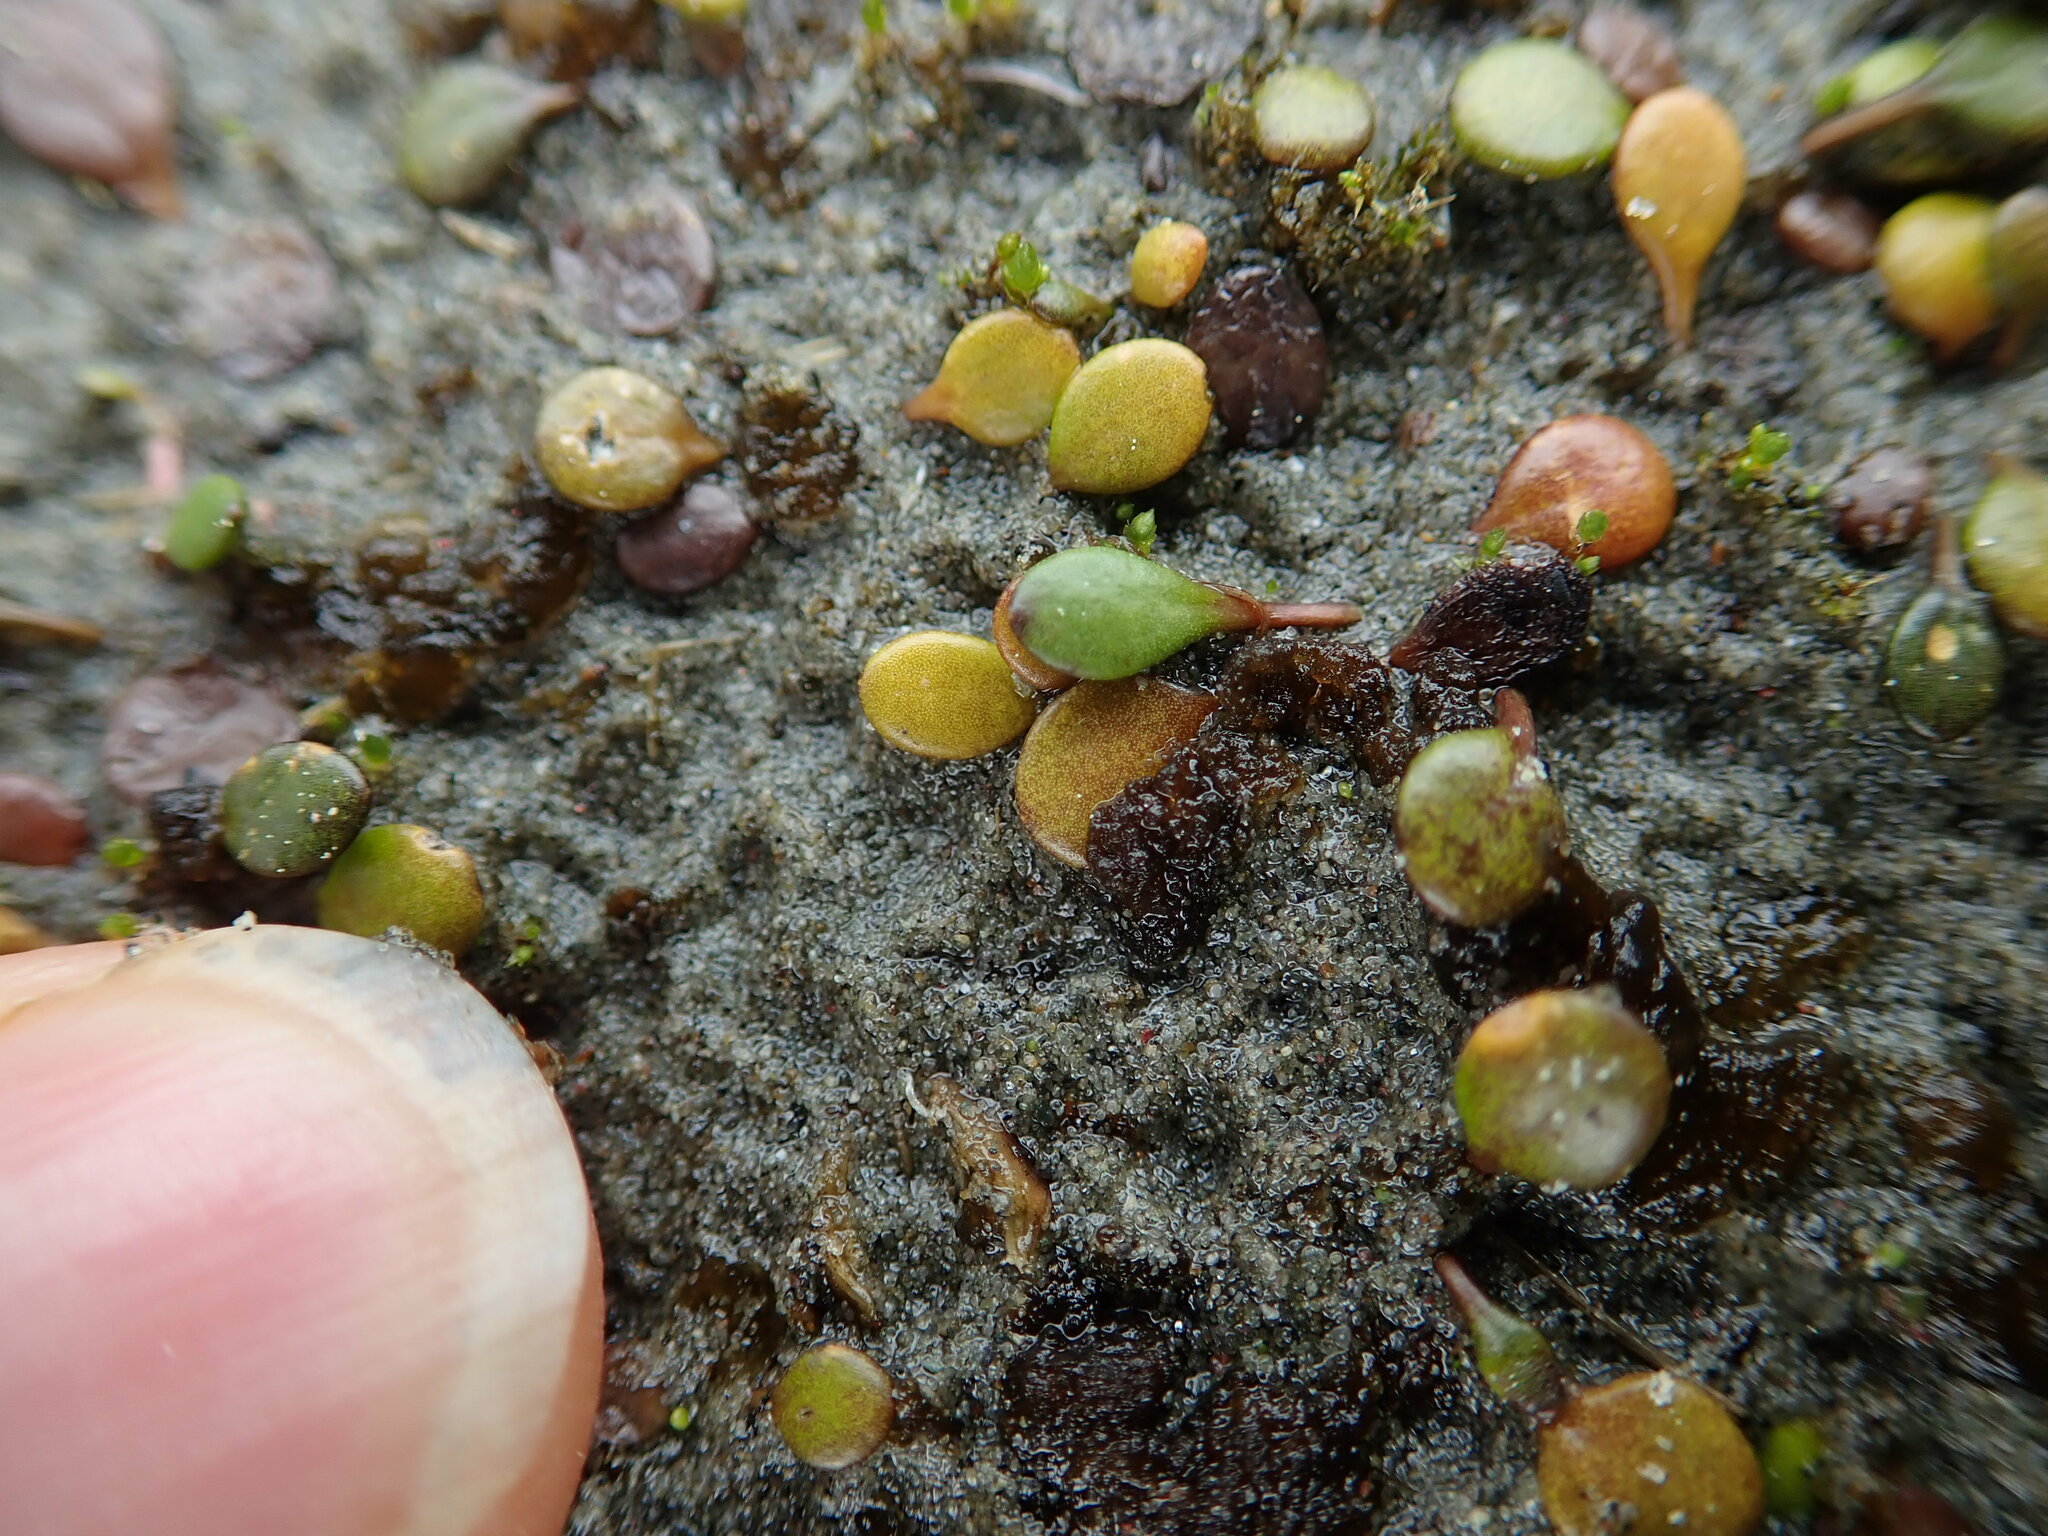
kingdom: Plantae
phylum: Tracheophyta
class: Magnoliopsida
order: Asterales
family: Goodeniaceae
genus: Goodenia
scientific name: Goodenia heenanii
